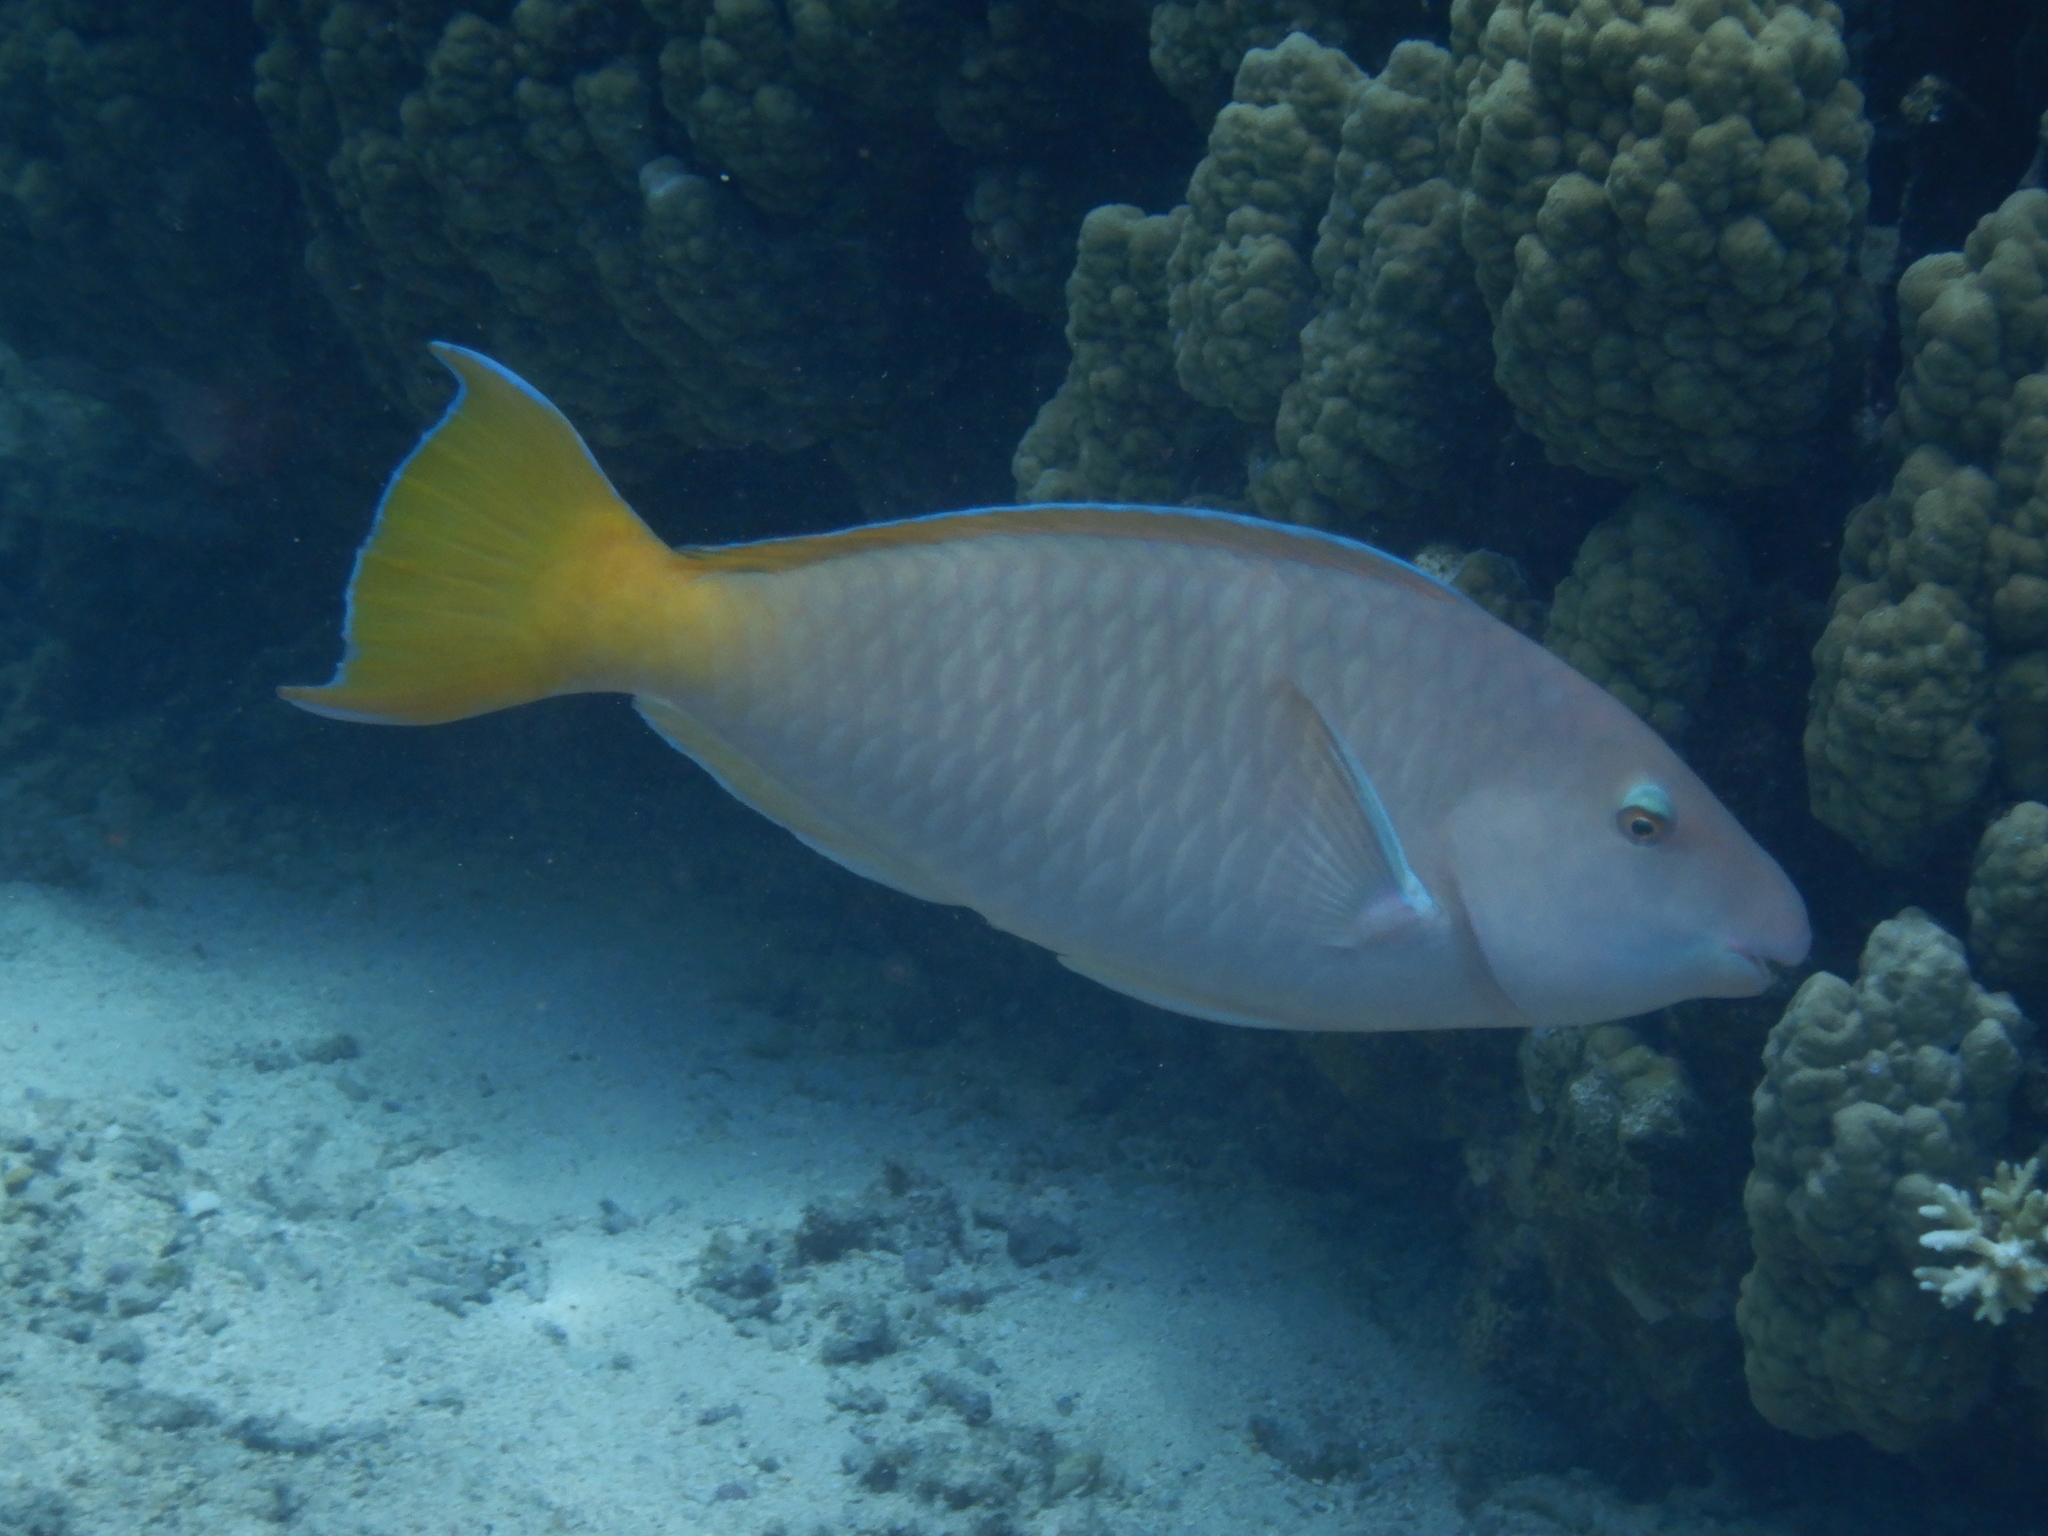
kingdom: Animalia
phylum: Chordata
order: Perciformes
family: Scaridae
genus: Hipposcarus
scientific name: Hipposcarus longiceps
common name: Pacific longnose parrotfish
